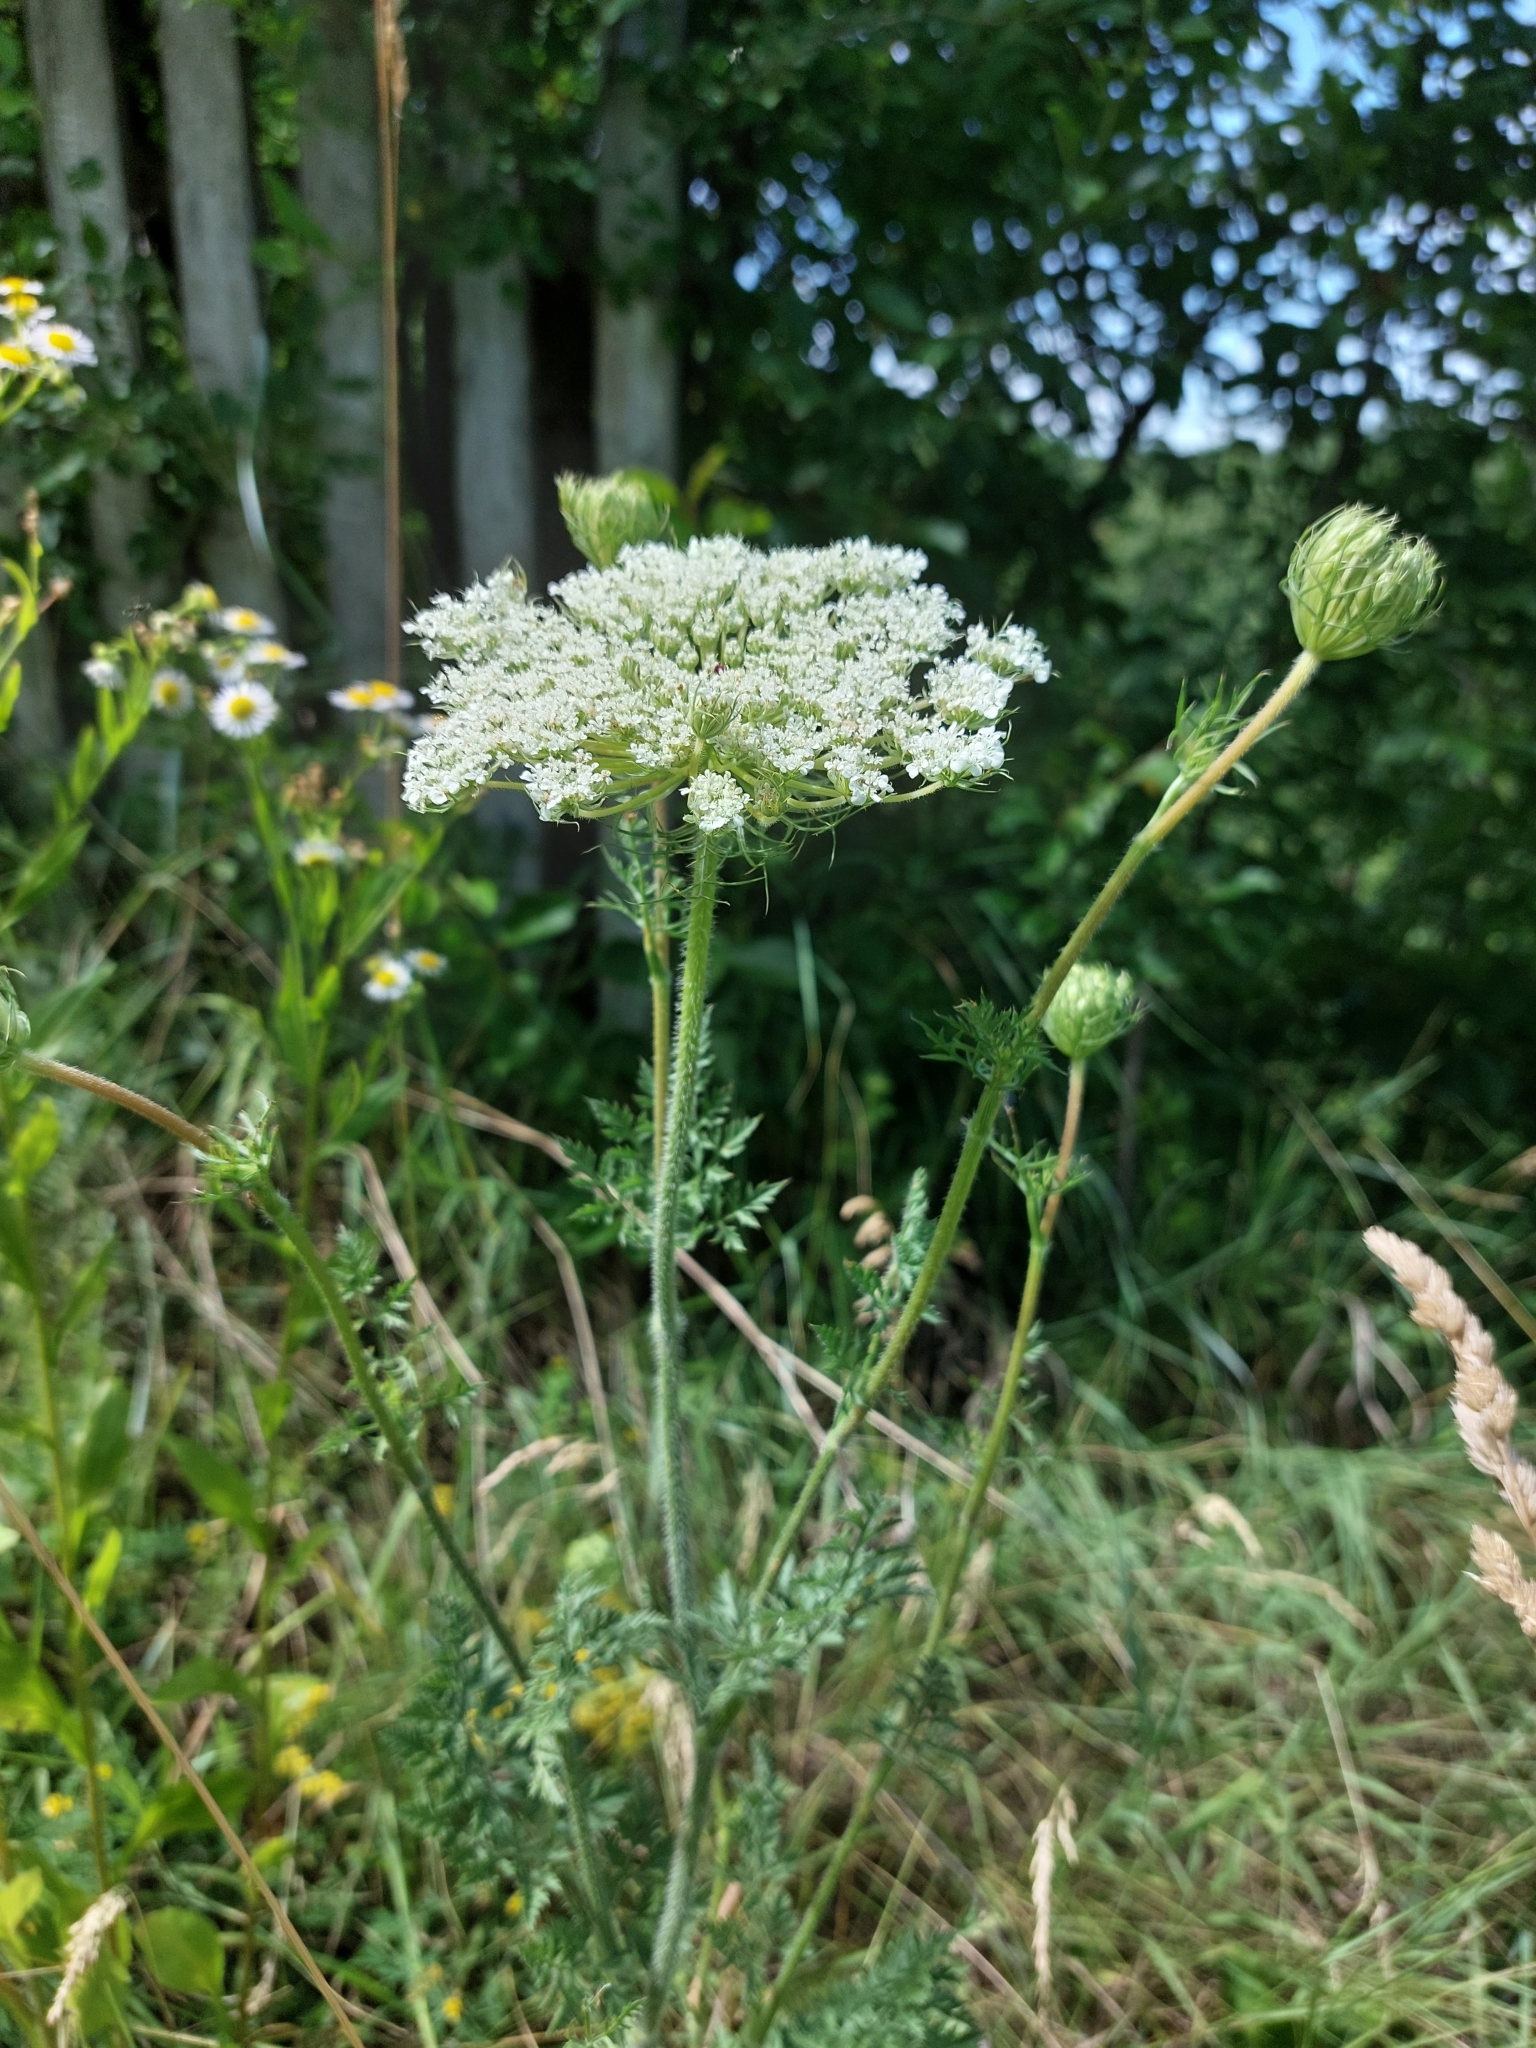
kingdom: Plantae
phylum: Tracheophyta
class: Magnoliopsida
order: Apiales
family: Apiaceae
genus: Daucus
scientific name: Daucus carota
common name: Wild carrot
